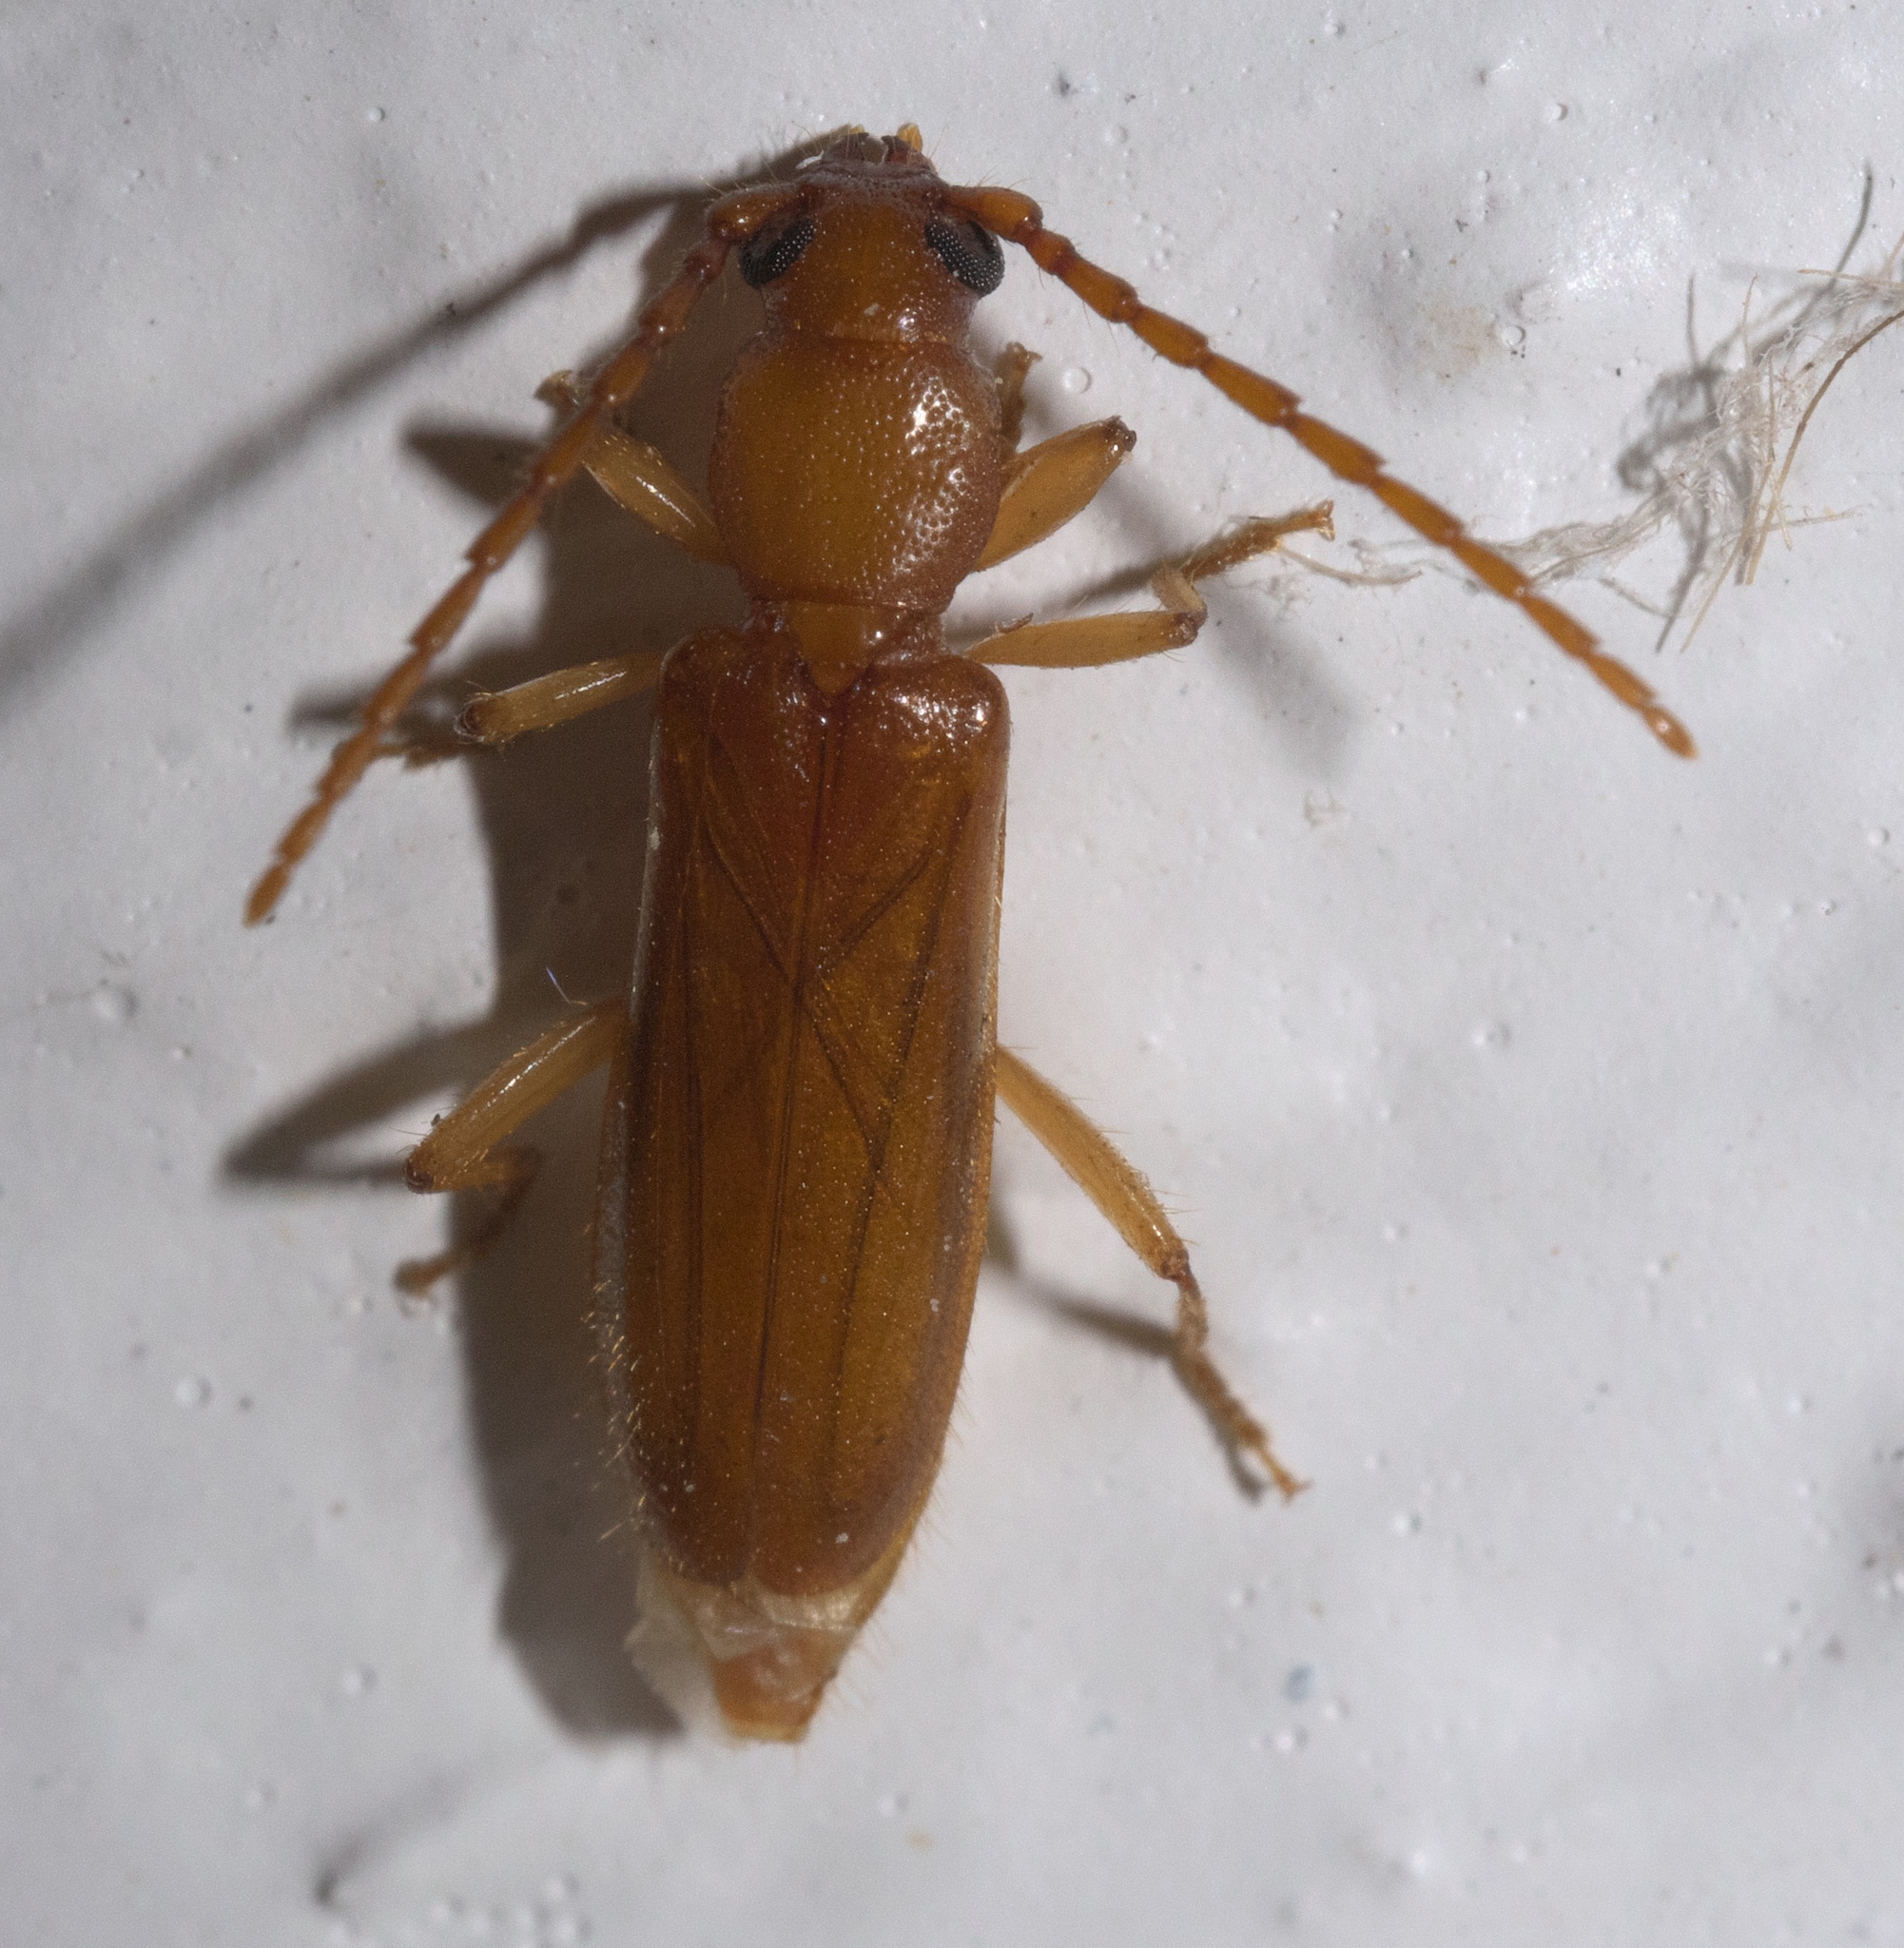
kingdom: Animalia
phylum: Arthropoda
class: Insecta
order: Coleoptera
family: Cerambycidae
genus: Smodicum
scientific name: Smodicum cucujiforme
